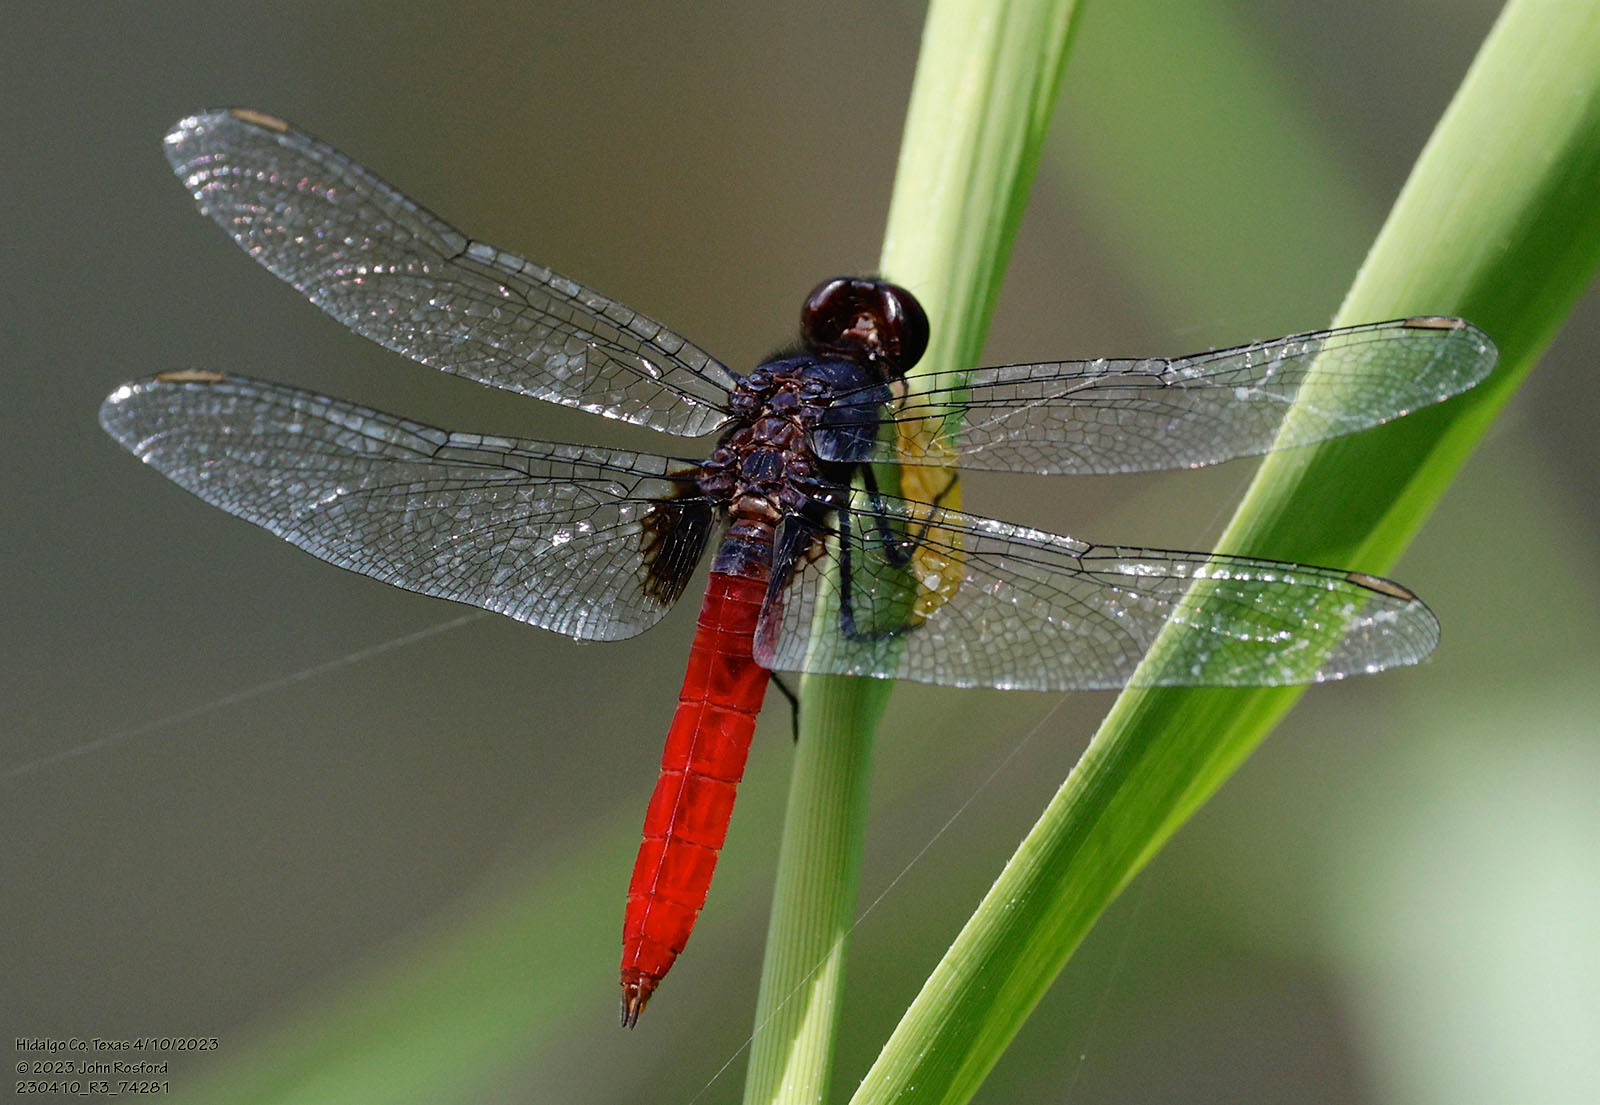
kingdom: Animalia
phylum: Arthropoda
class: Insecta
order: Odonata
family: Libellulidae
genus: Planiplax
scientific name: Planiplax sanguiniventris
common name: Mexican scarlet-tail
